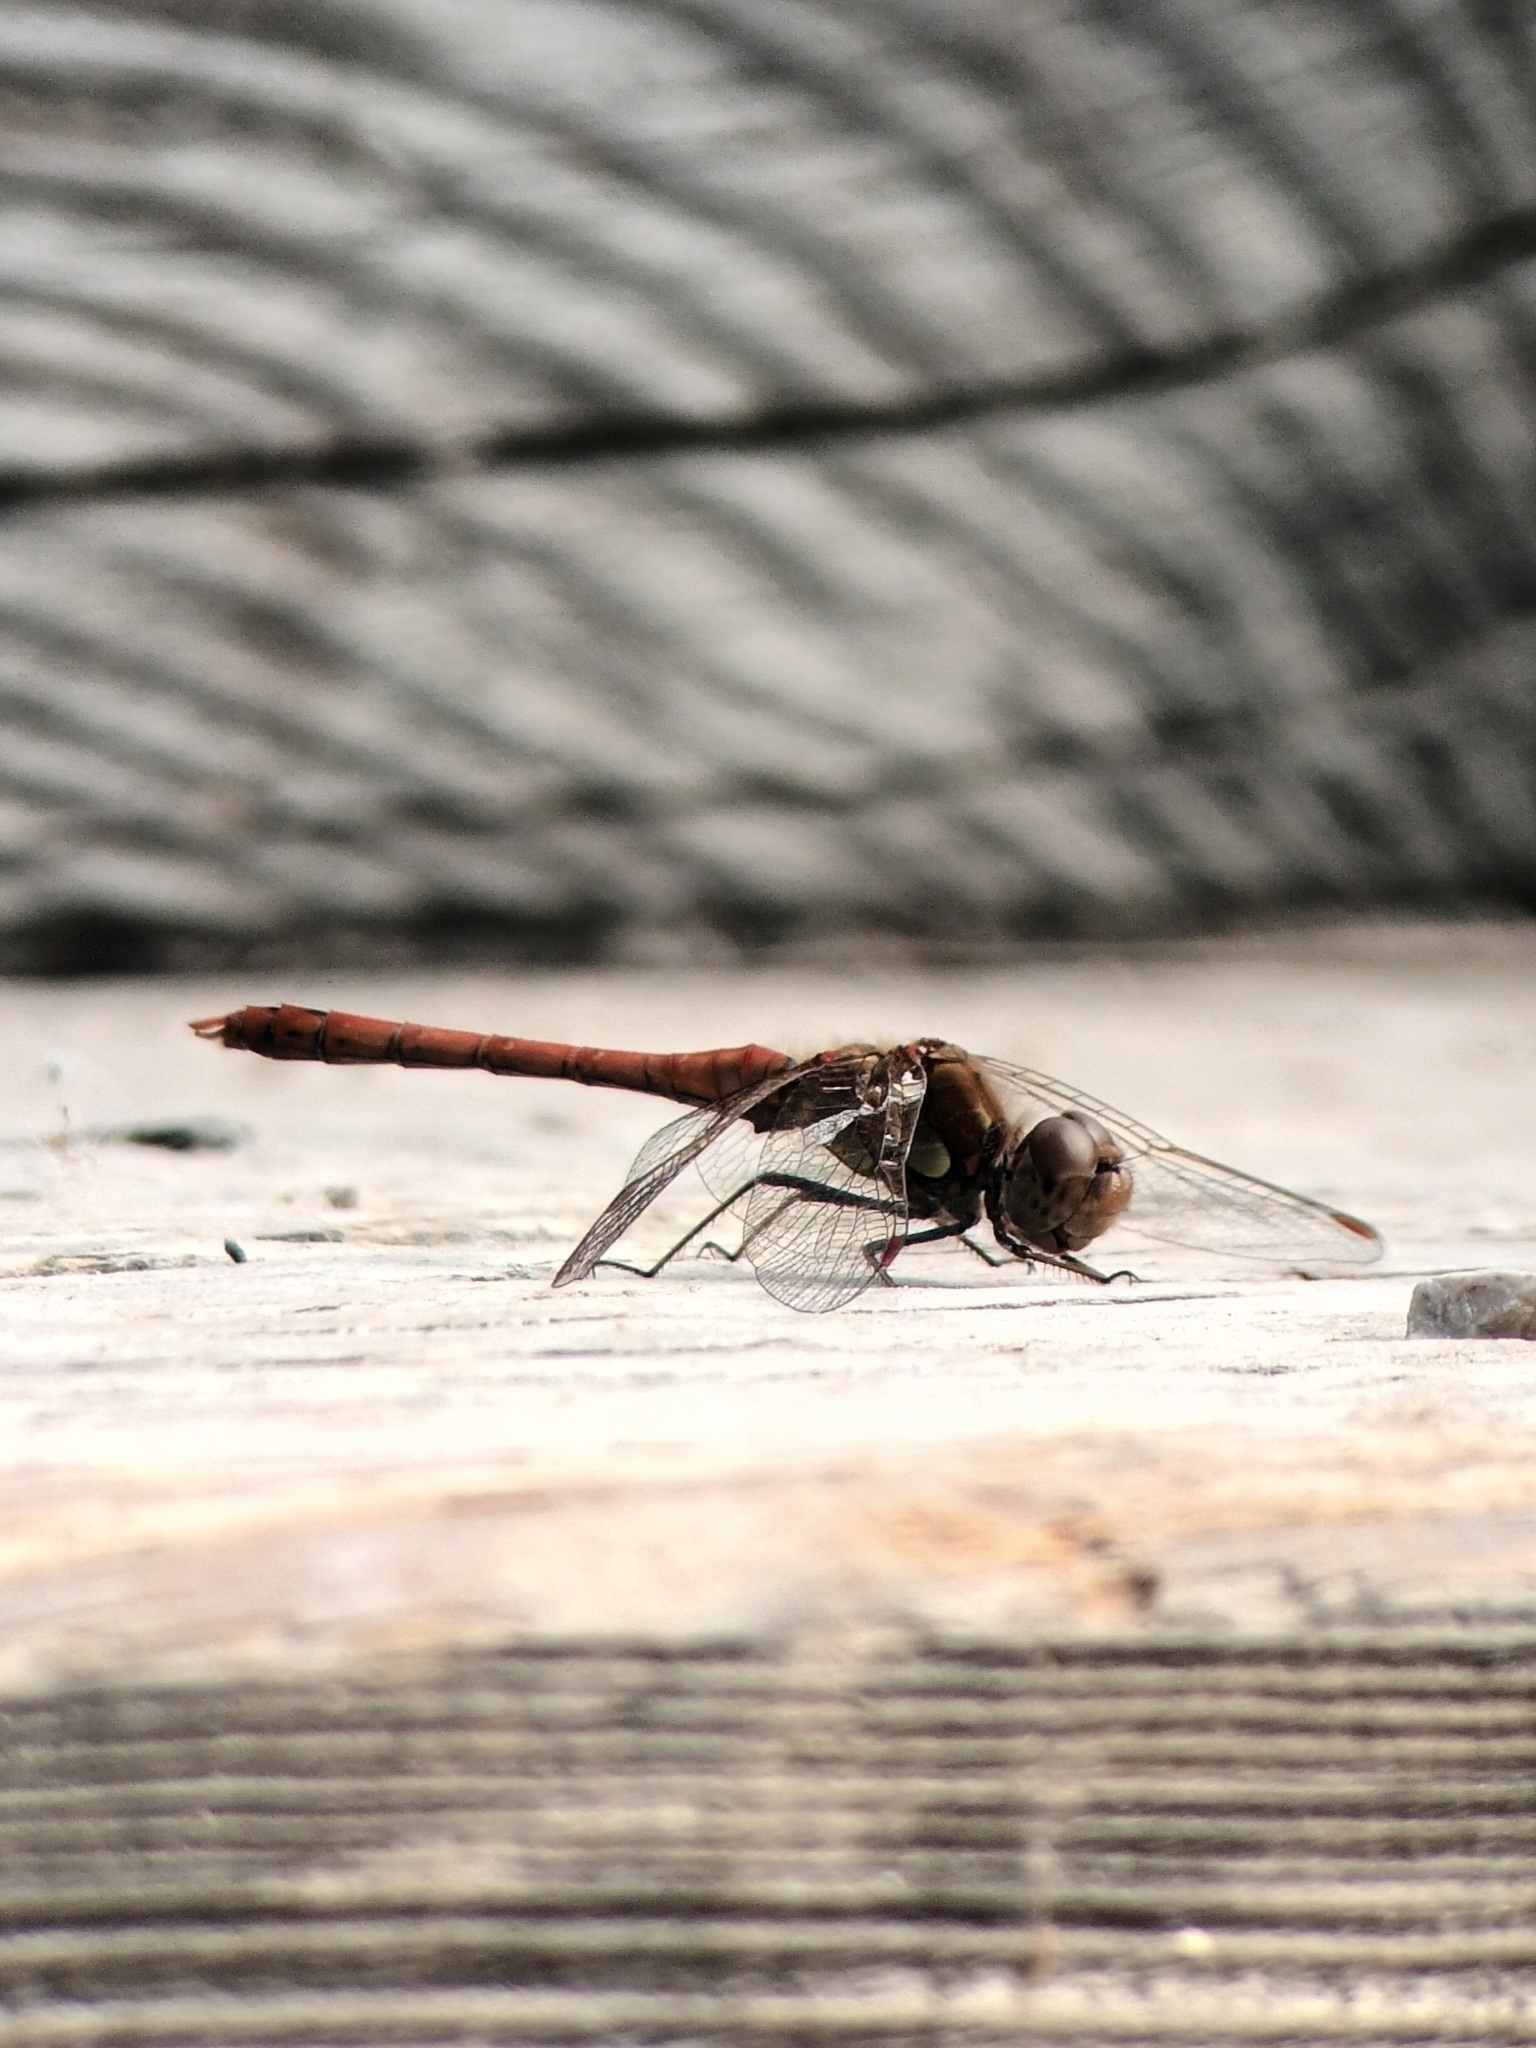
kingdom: Animalia
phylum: Arthropoda
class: Insecta
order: Odonata
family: Libellulidae
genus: Sympetrum
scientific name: Sympetrum striolatum
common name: Common darter
